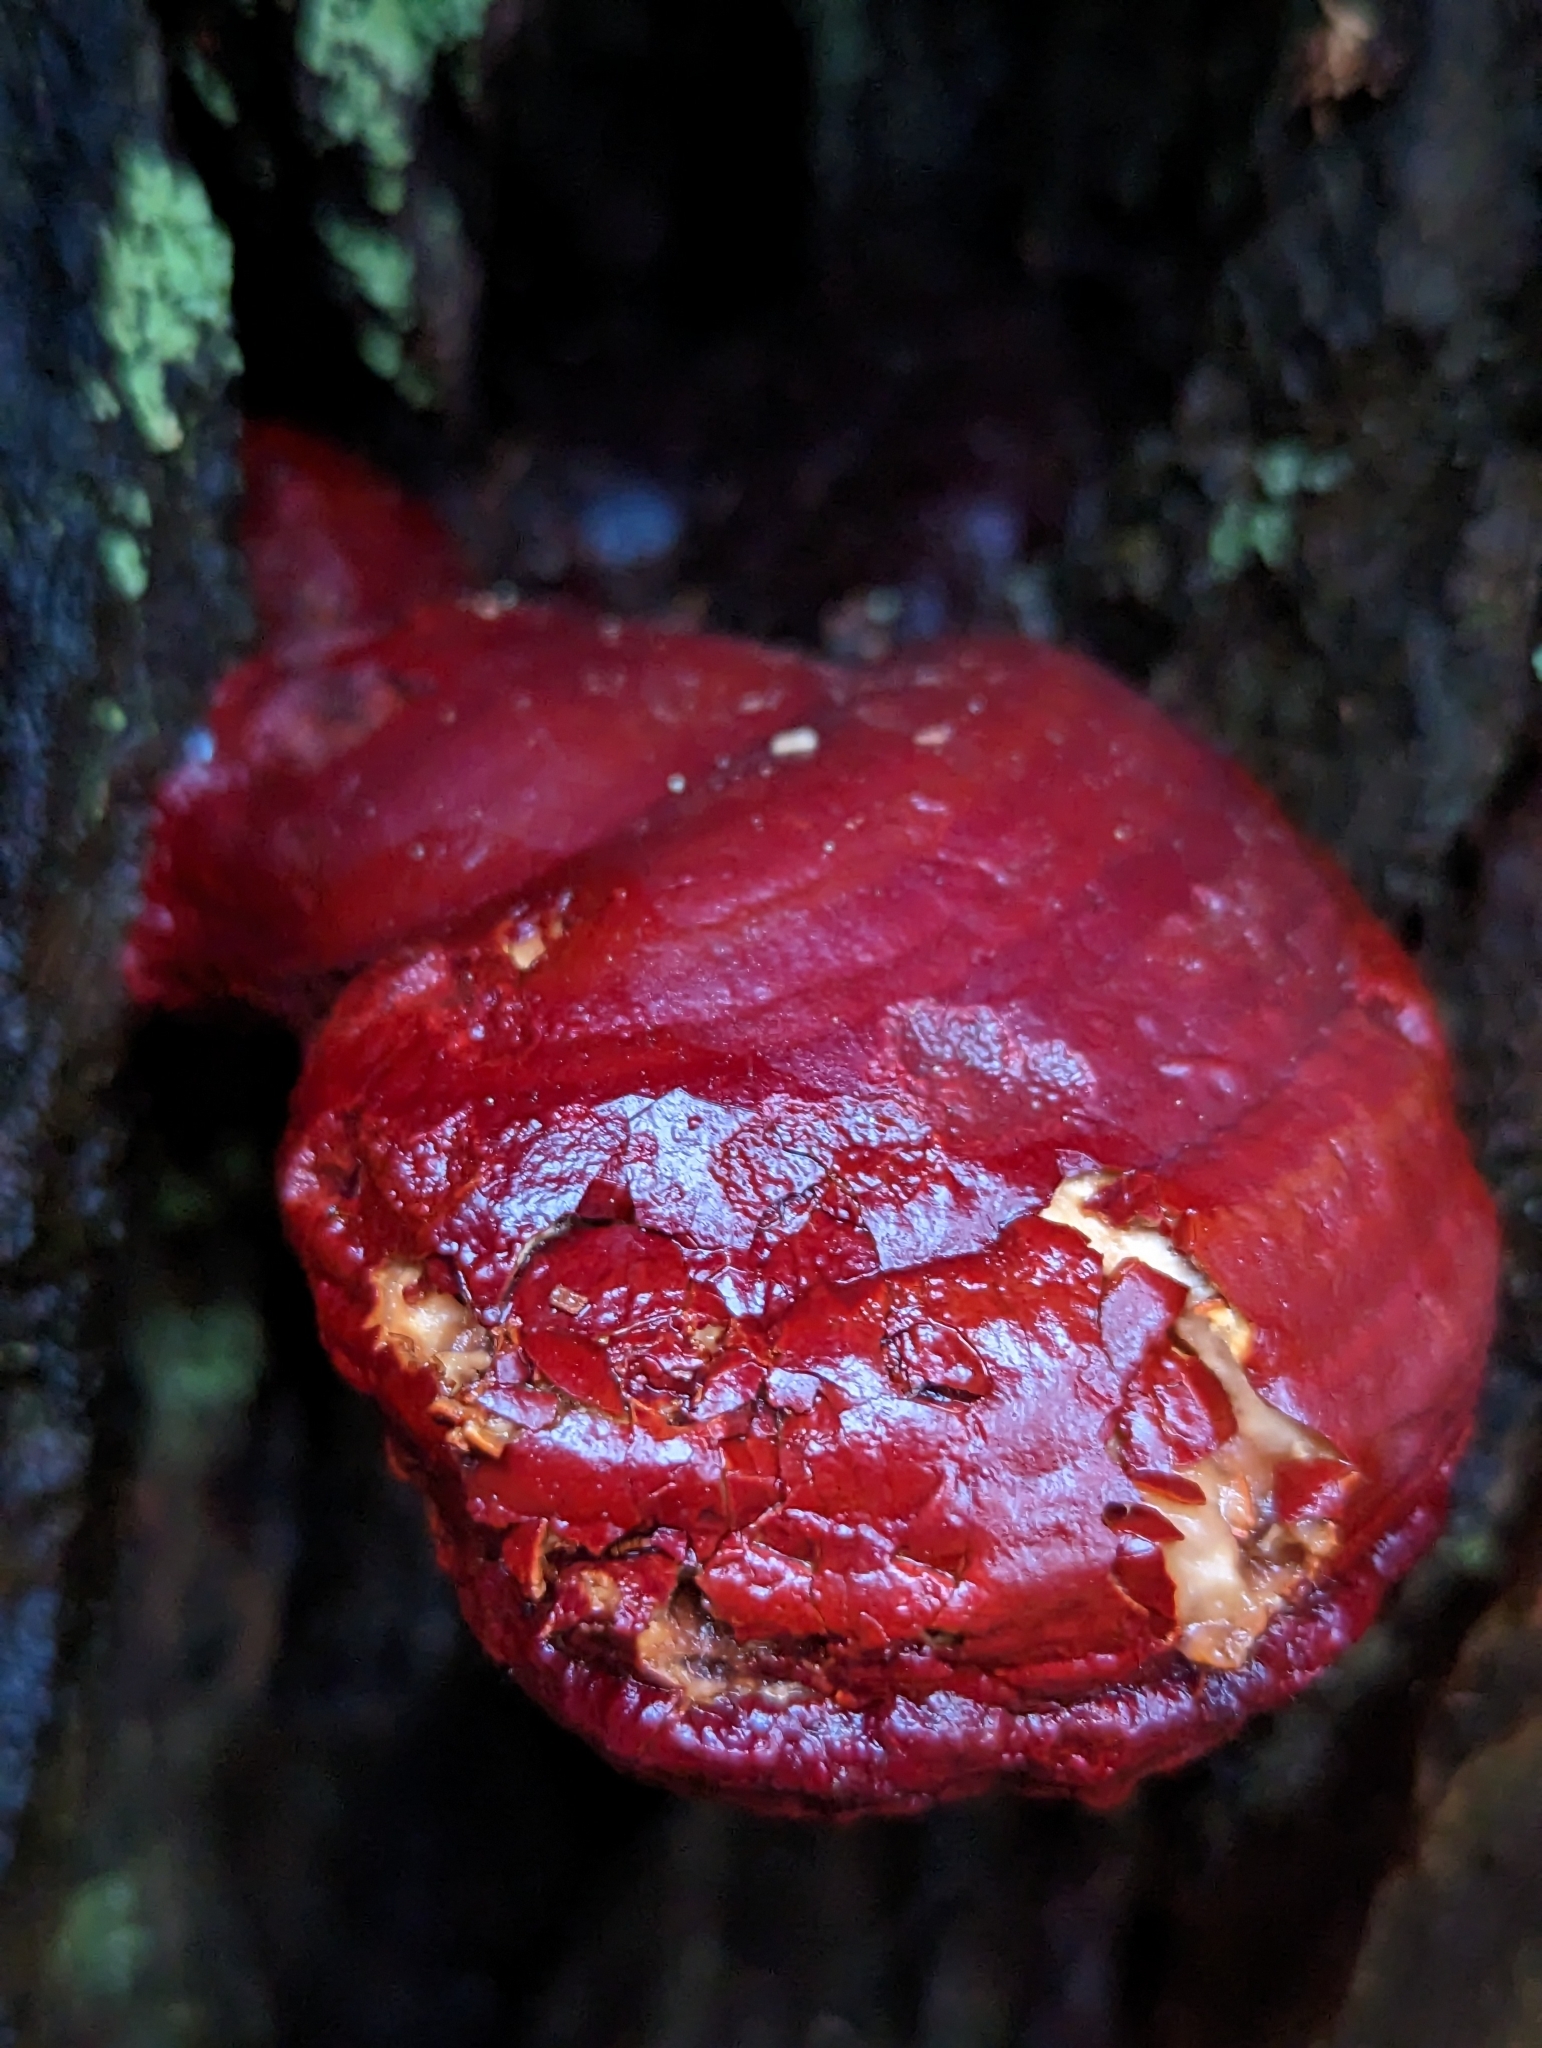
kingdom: Fungi
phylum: Basidiomycota
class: Agaricomycetes
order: Polyporales
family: Polyporaceae
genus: Ganoderma
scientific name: Ganoderma oregonense
